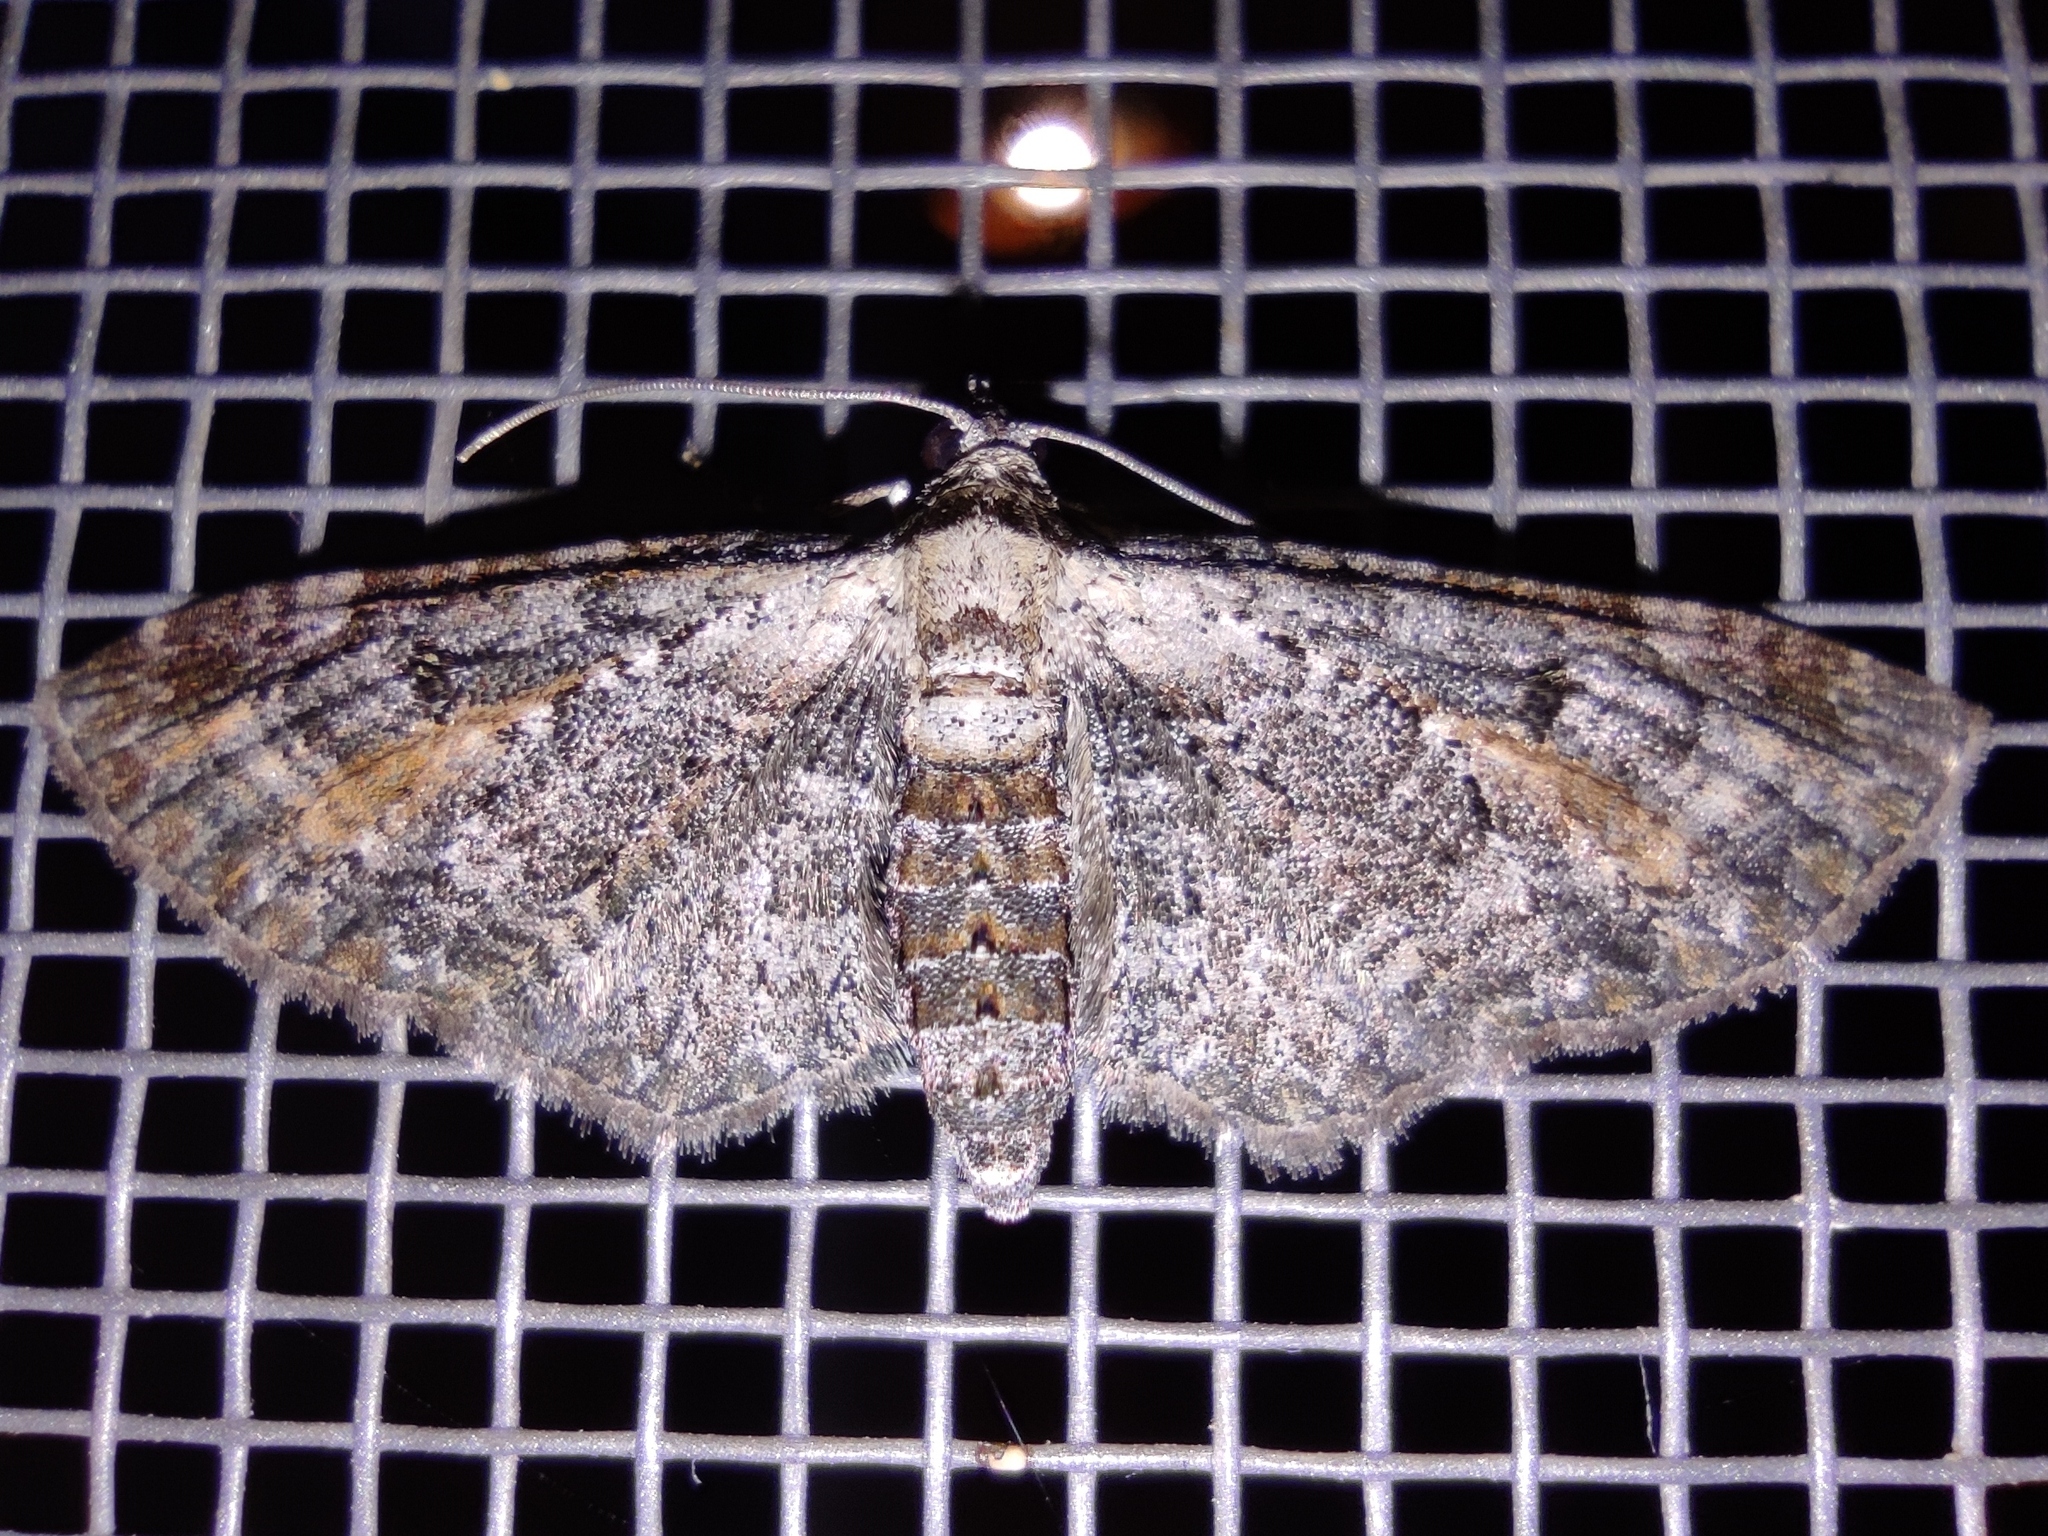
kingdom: Animalia
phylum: Arthropoda
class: Insecta
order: Lepidoptera
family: Geometridae
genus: Eupithecia
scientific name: Eupithecia icterata
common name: Tawny speckled pug
